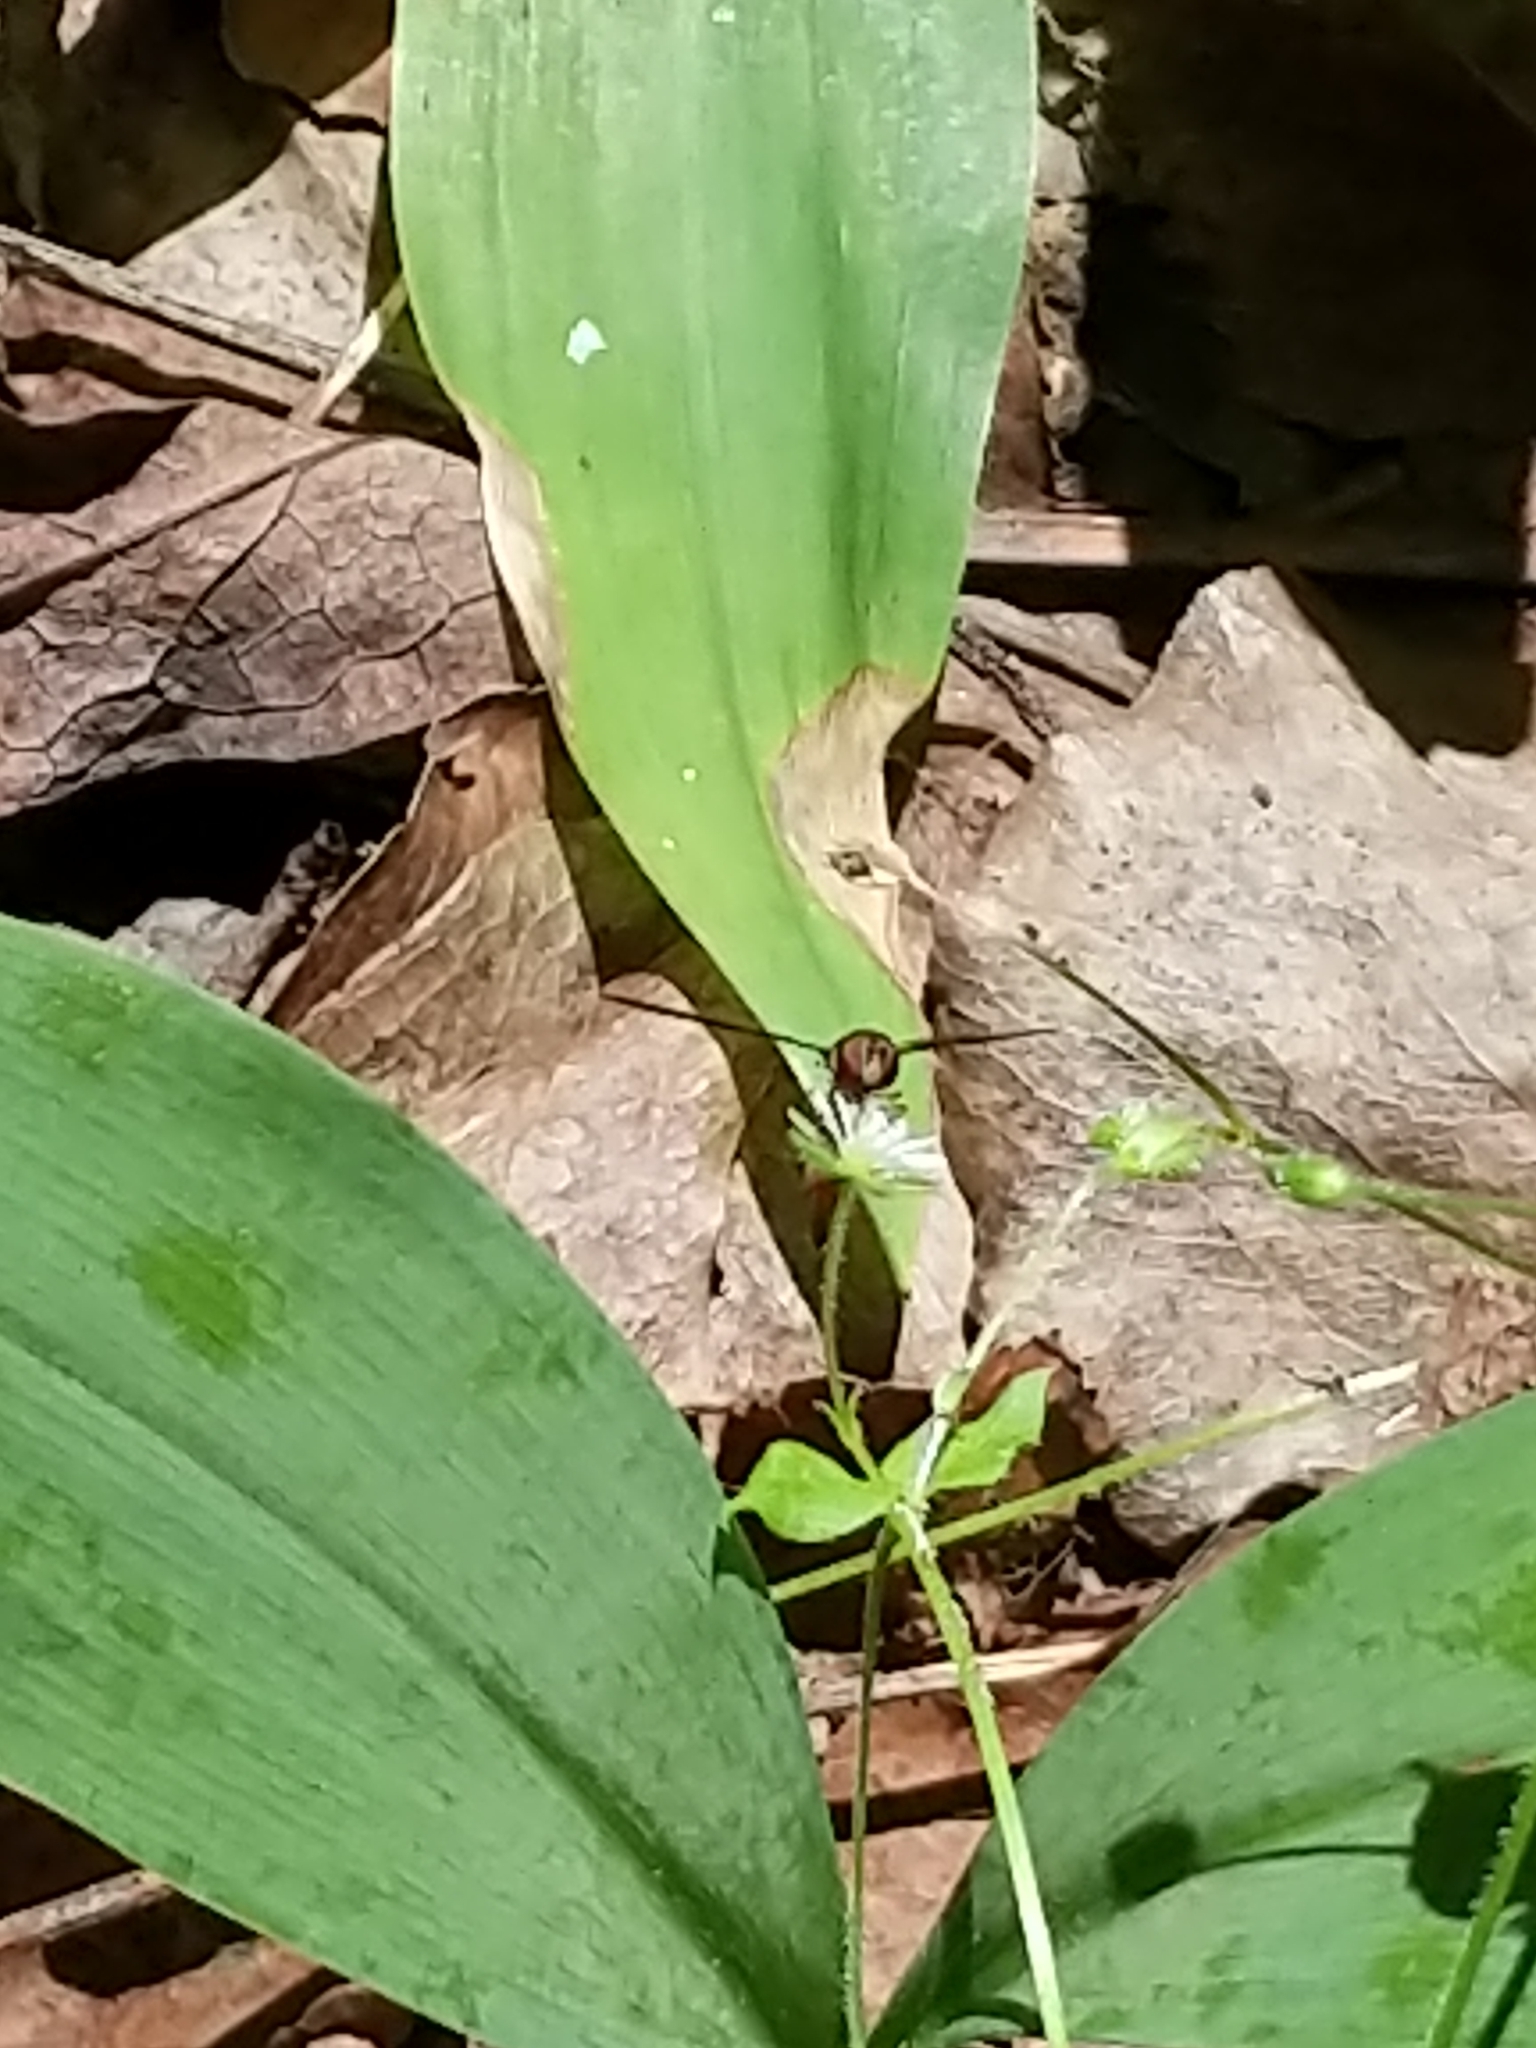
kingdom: Animalia
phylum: Arthropoda
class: Insecta
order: Diptera
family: Syrphidae
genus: Ocyptamus
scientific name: Ocyptamus fuscipennis
